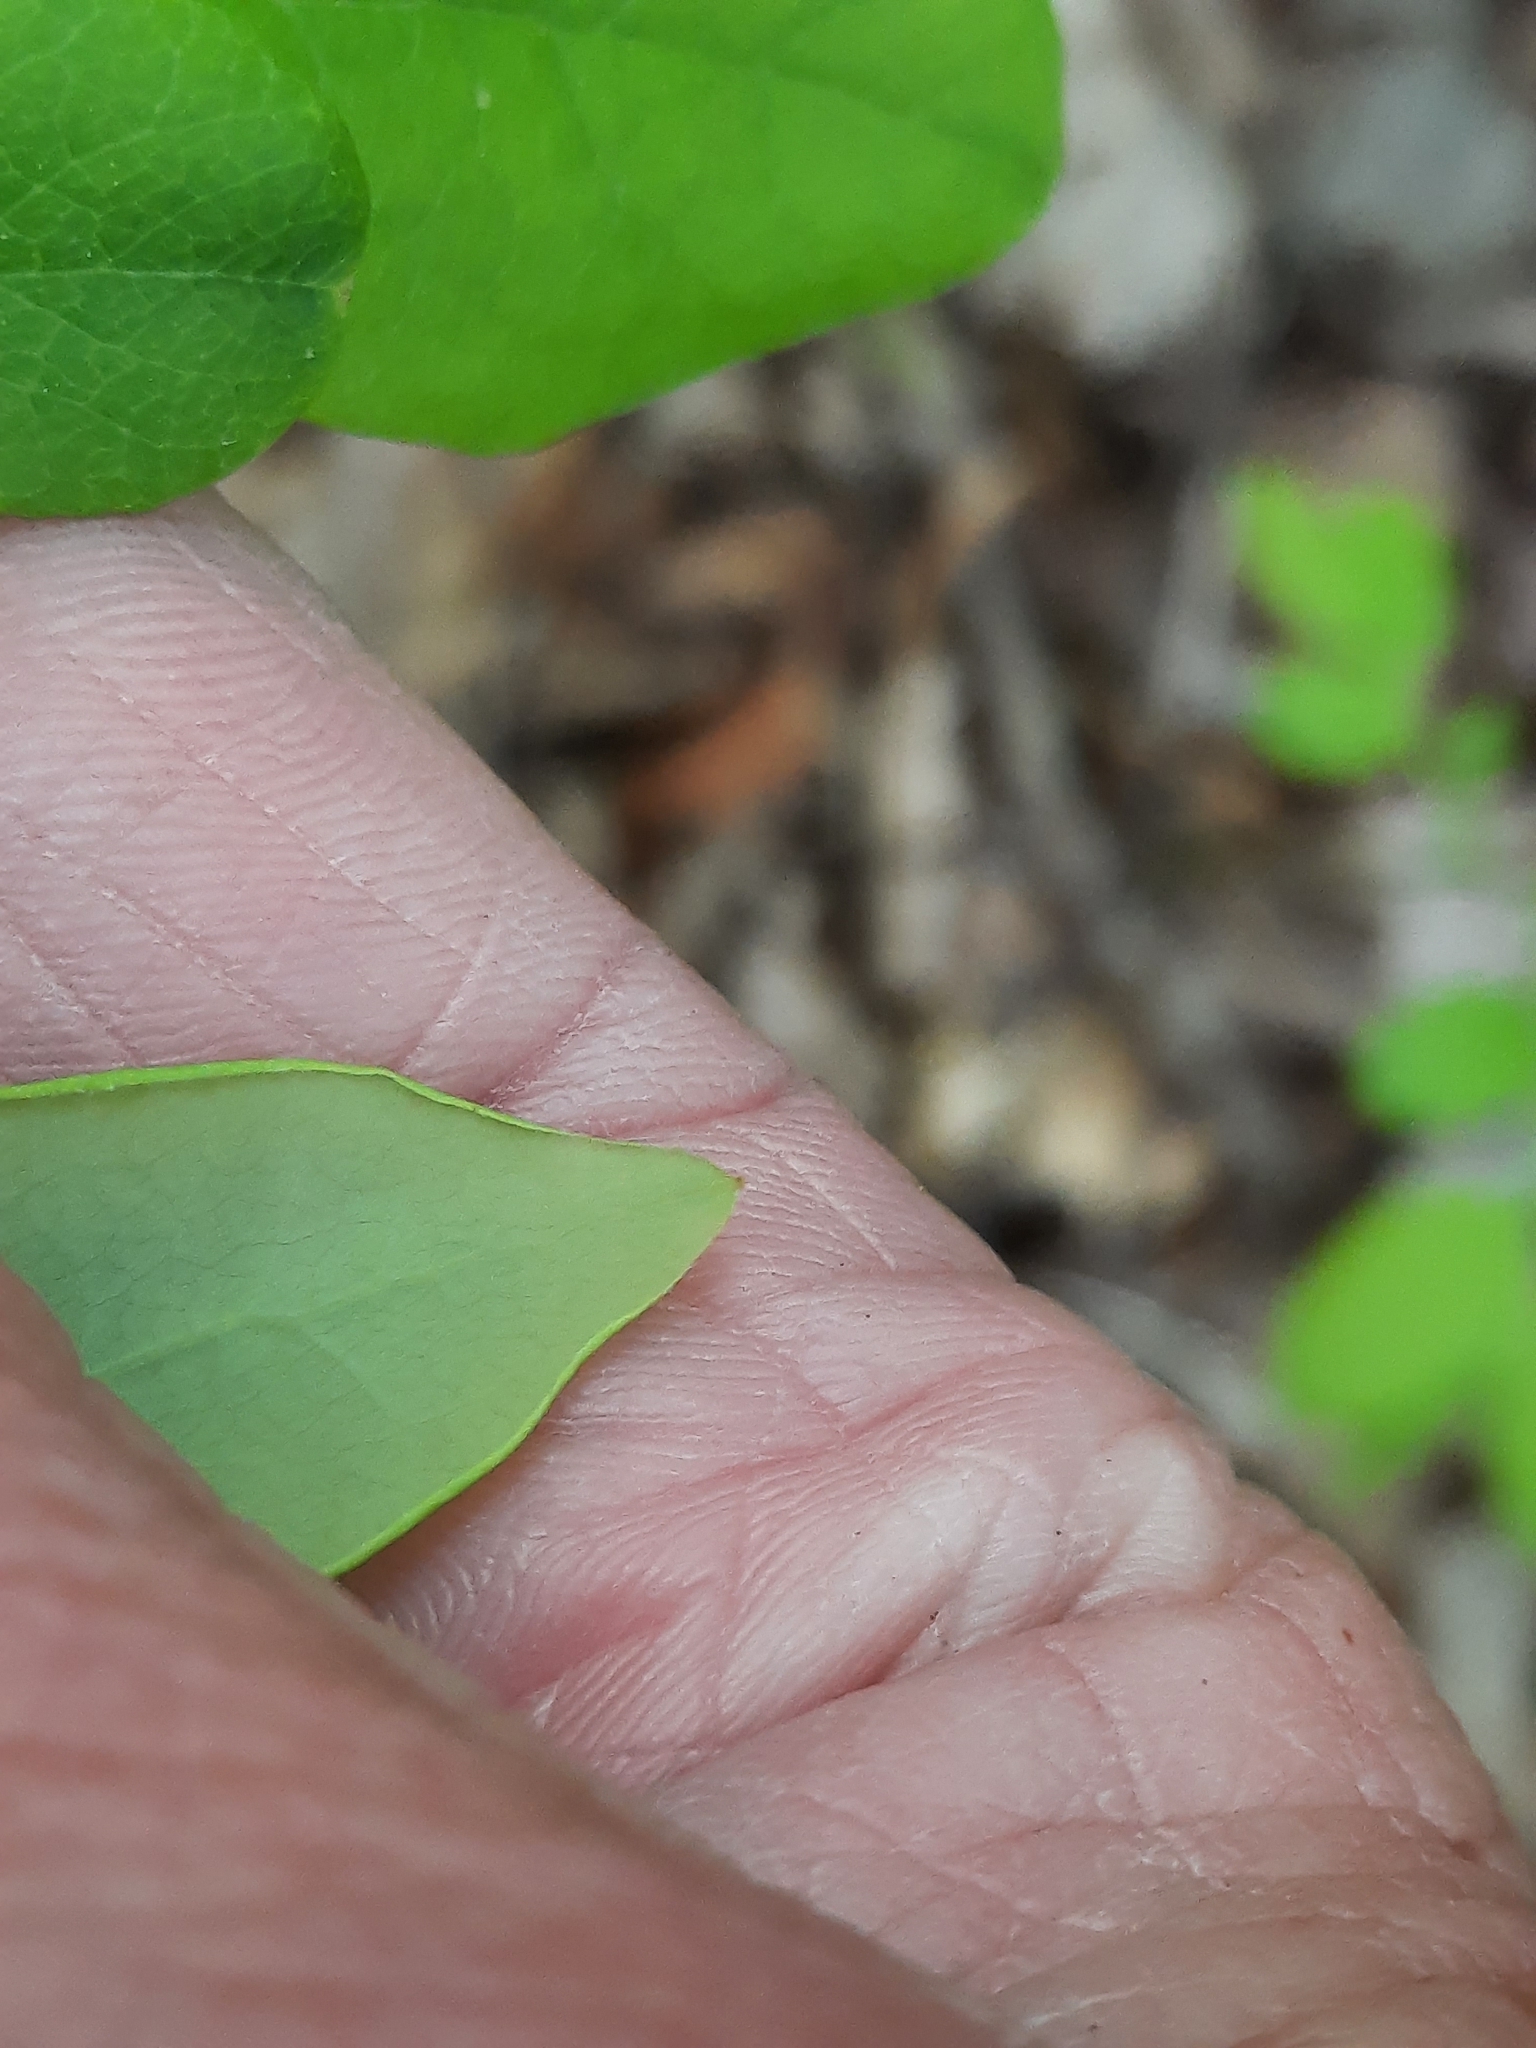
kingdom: Plantae
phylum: Tracheophyta
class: Magnoliopsida
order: Ericales
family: Ericaceae
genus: Vaccinium
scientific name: Vaccinium pallidum
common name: Blue ridge blueberry
